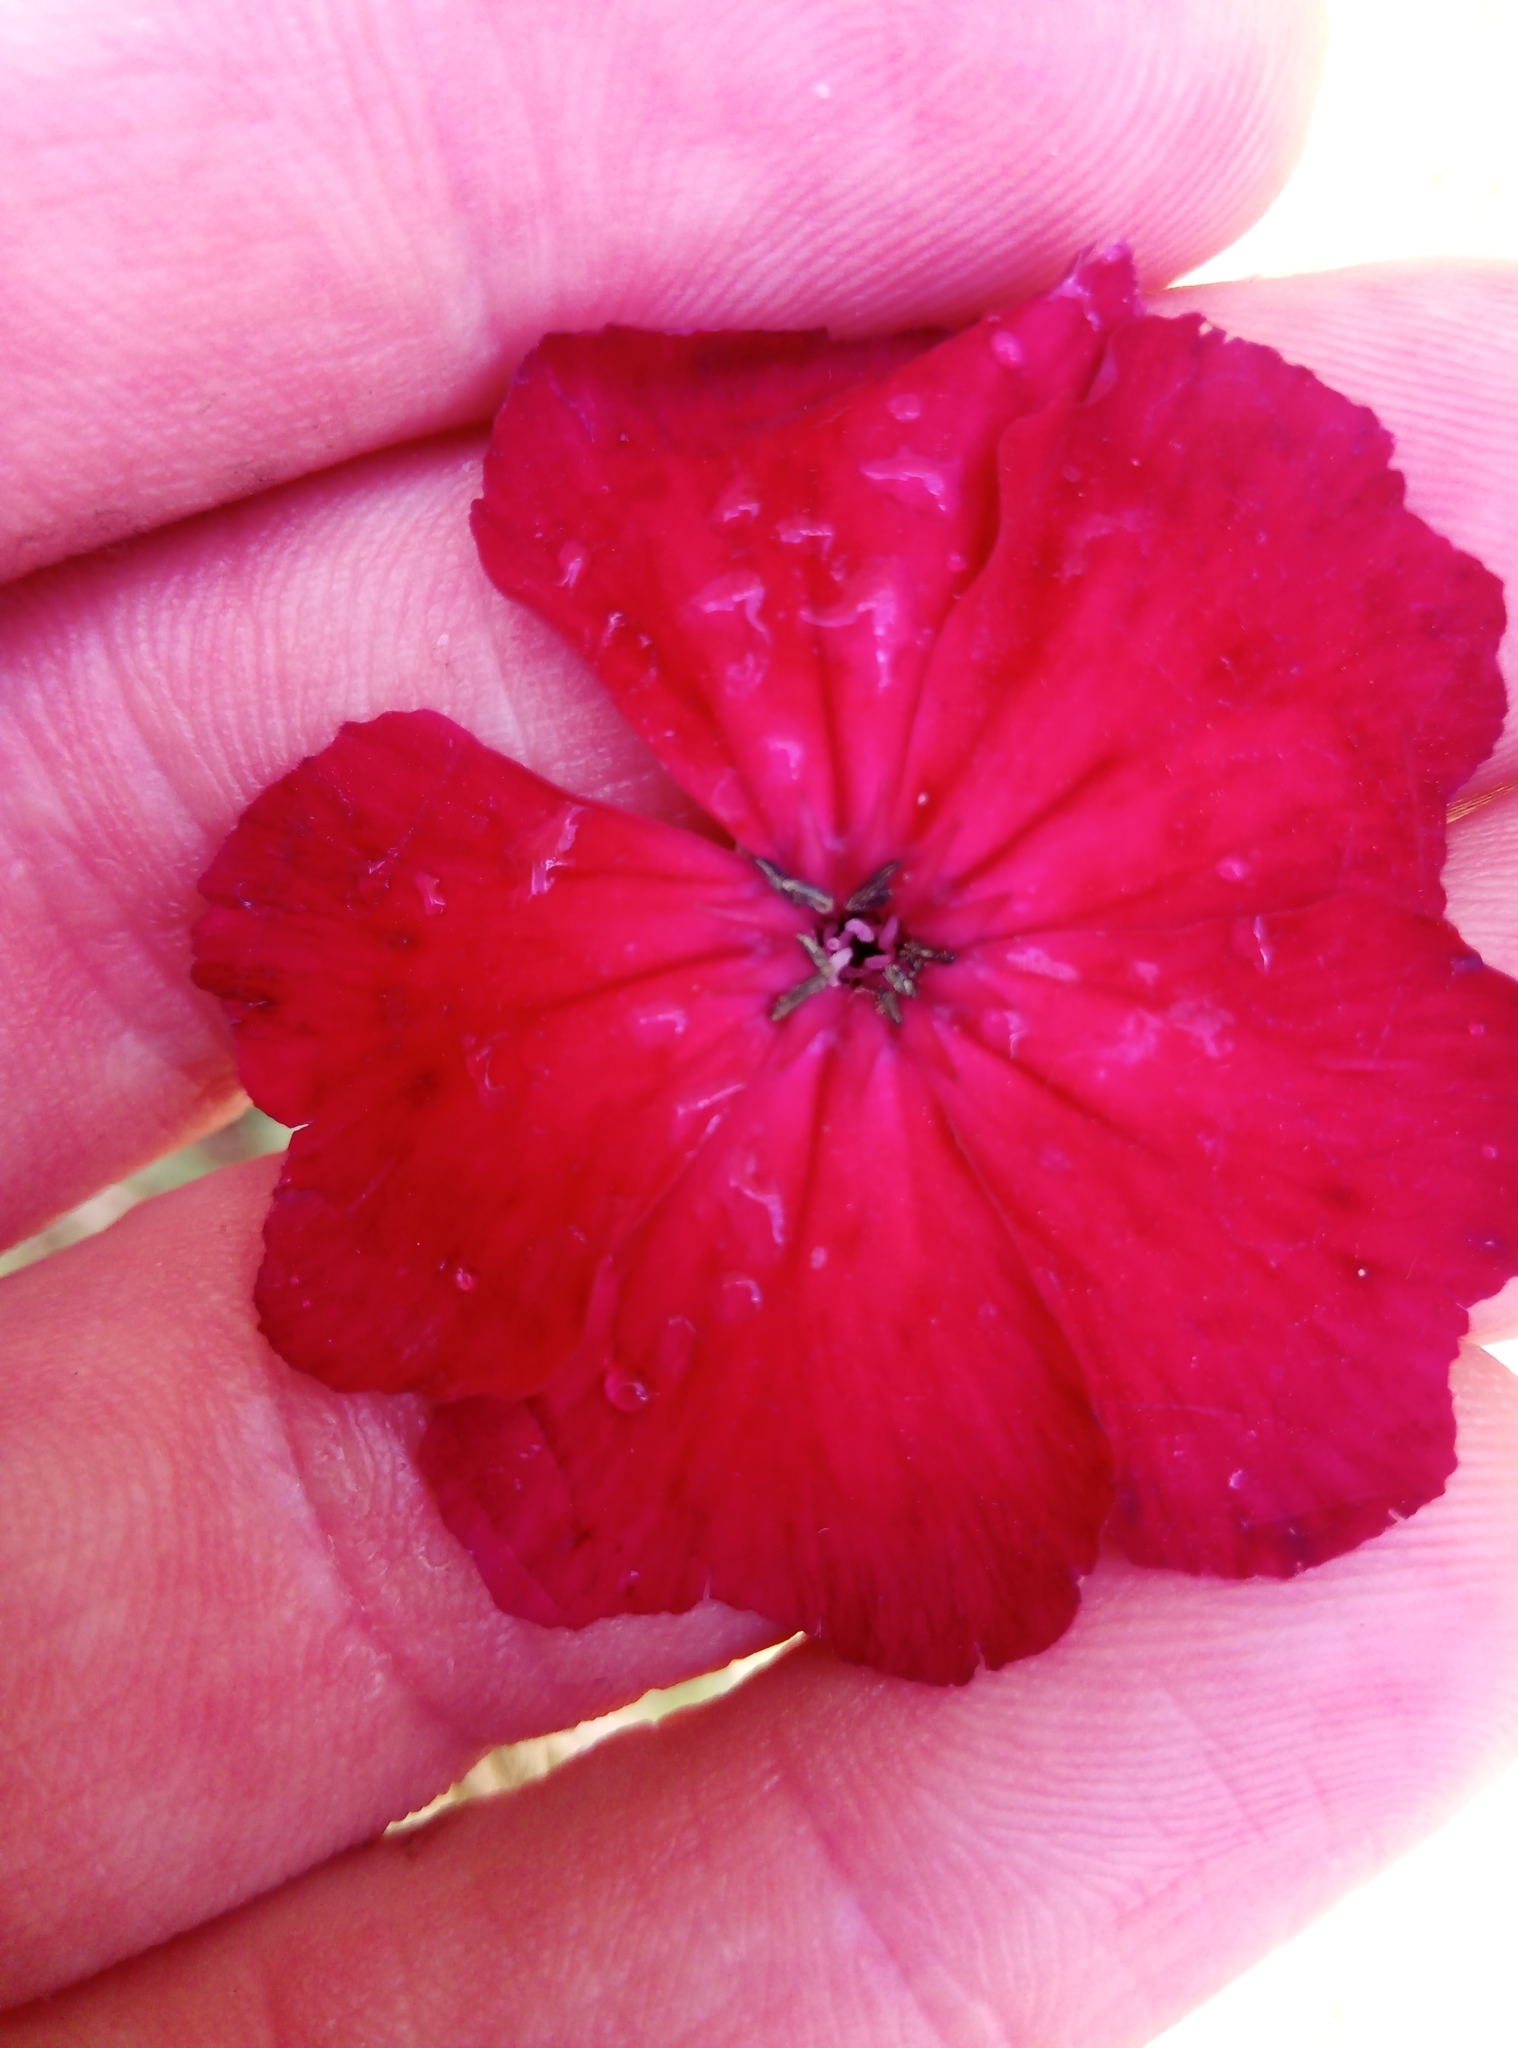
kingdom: Plantae
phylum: Tracheophyta
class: Magnoliopsida
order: Caryophyllales
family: Caryophyllaceae
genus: Silene
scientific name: Silene coronaria
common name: Rose campion
